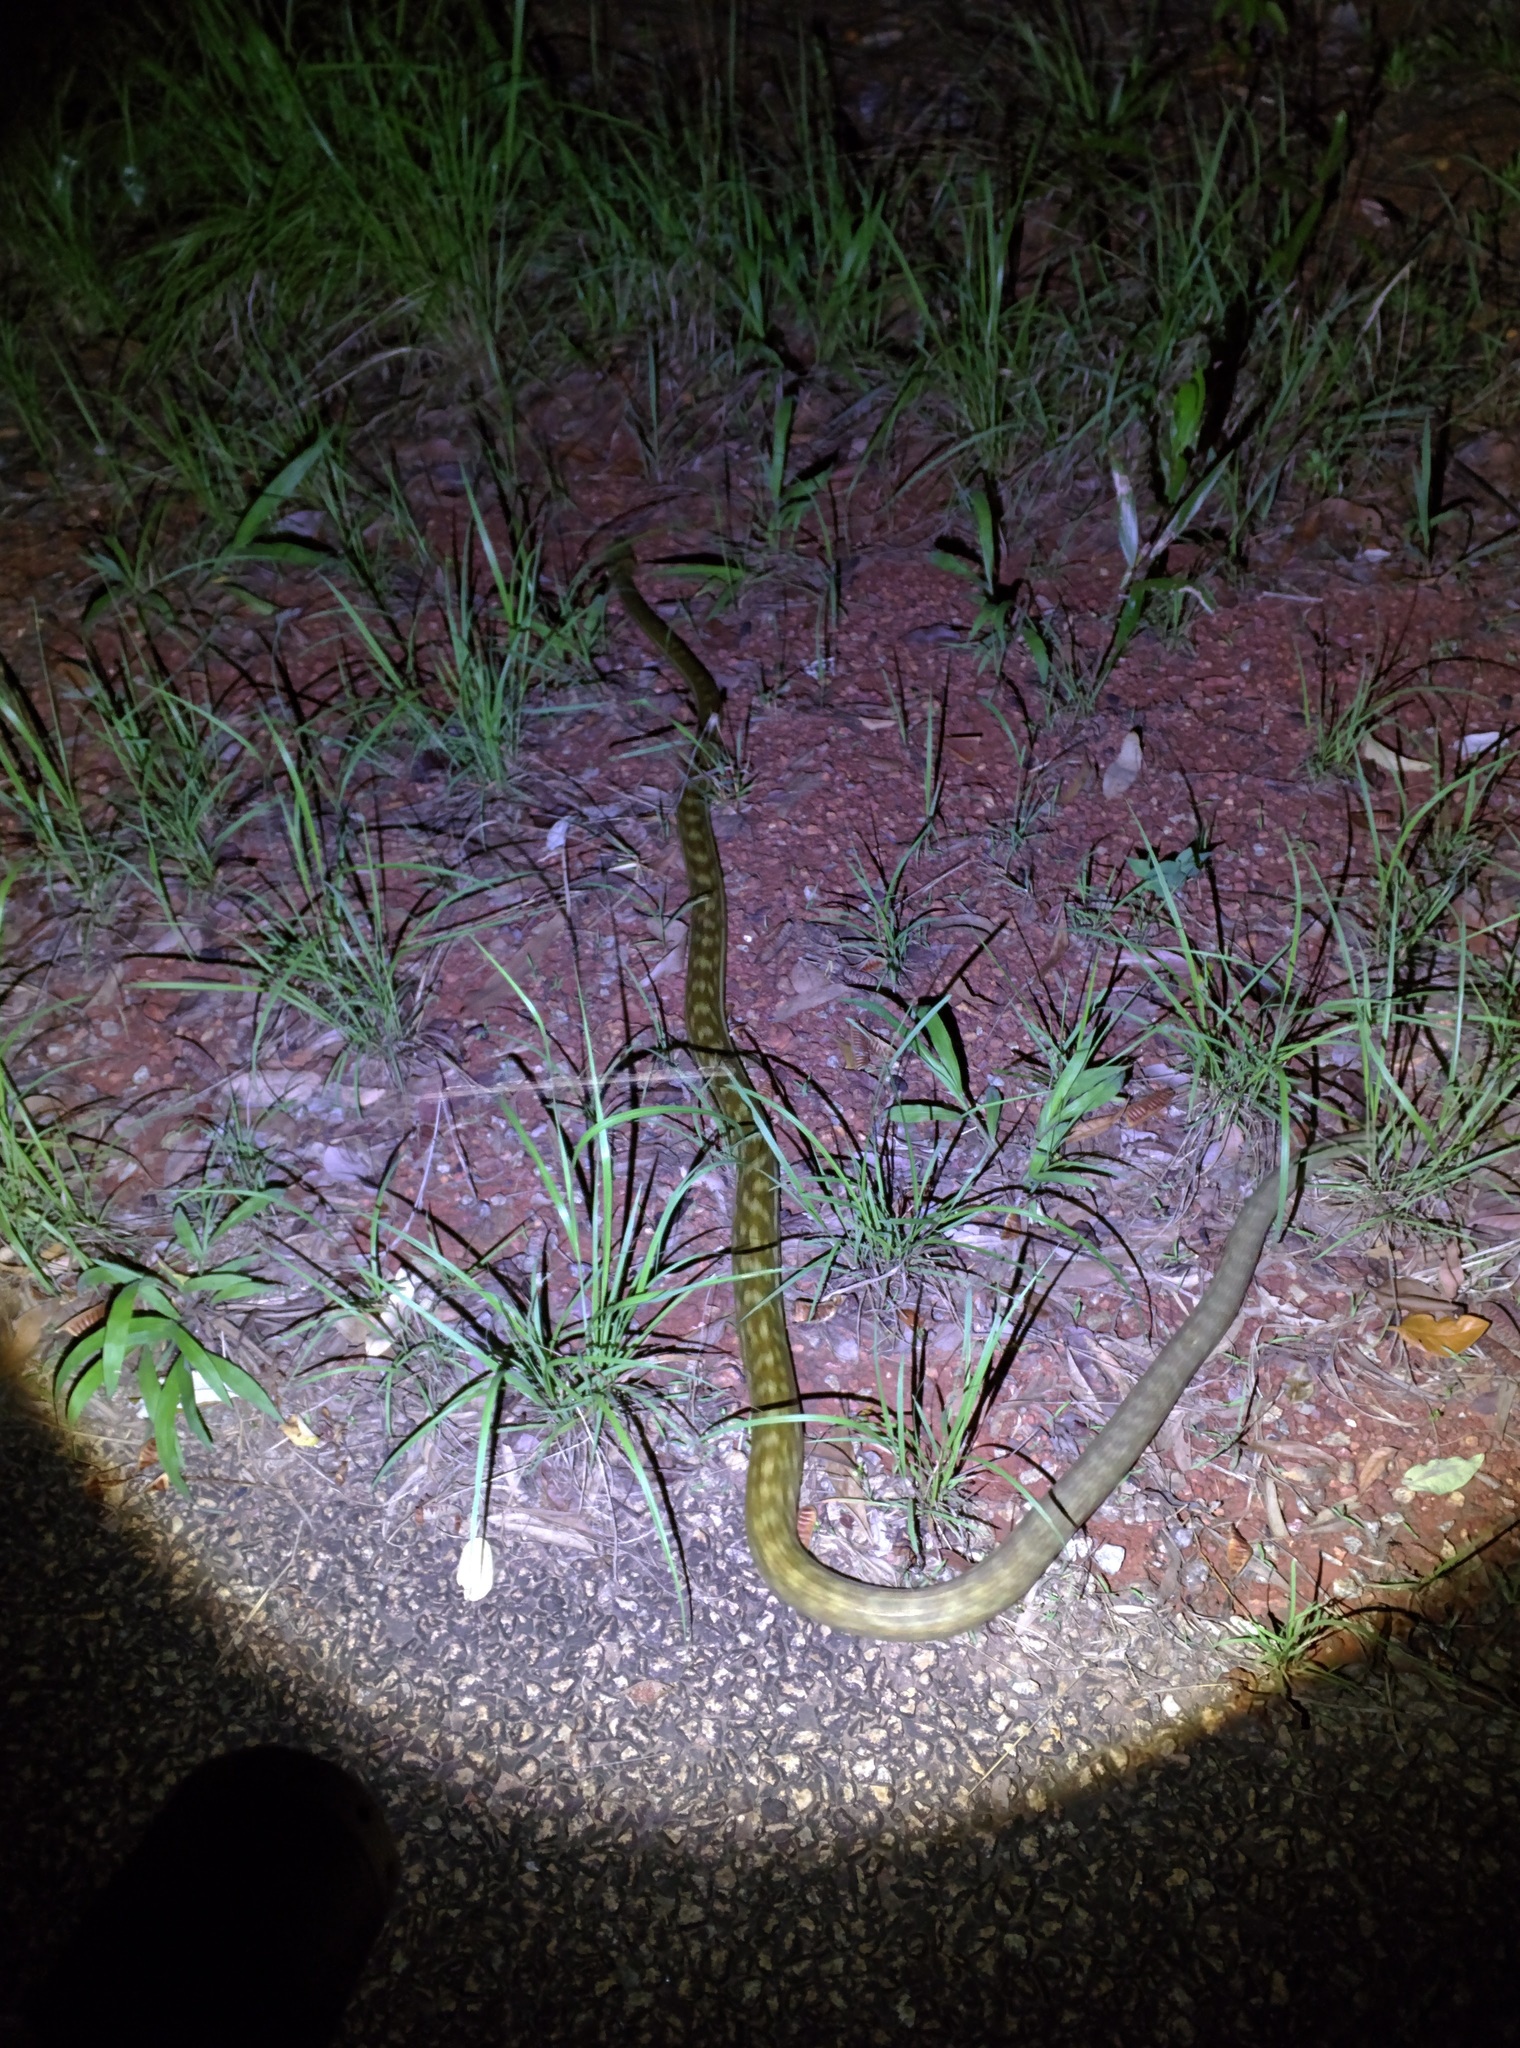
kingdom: Animalia
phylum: Chordata
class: Squamata
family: Pythonidae
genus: Simalia
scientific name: Simalia kinghorni
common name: Scrub python
